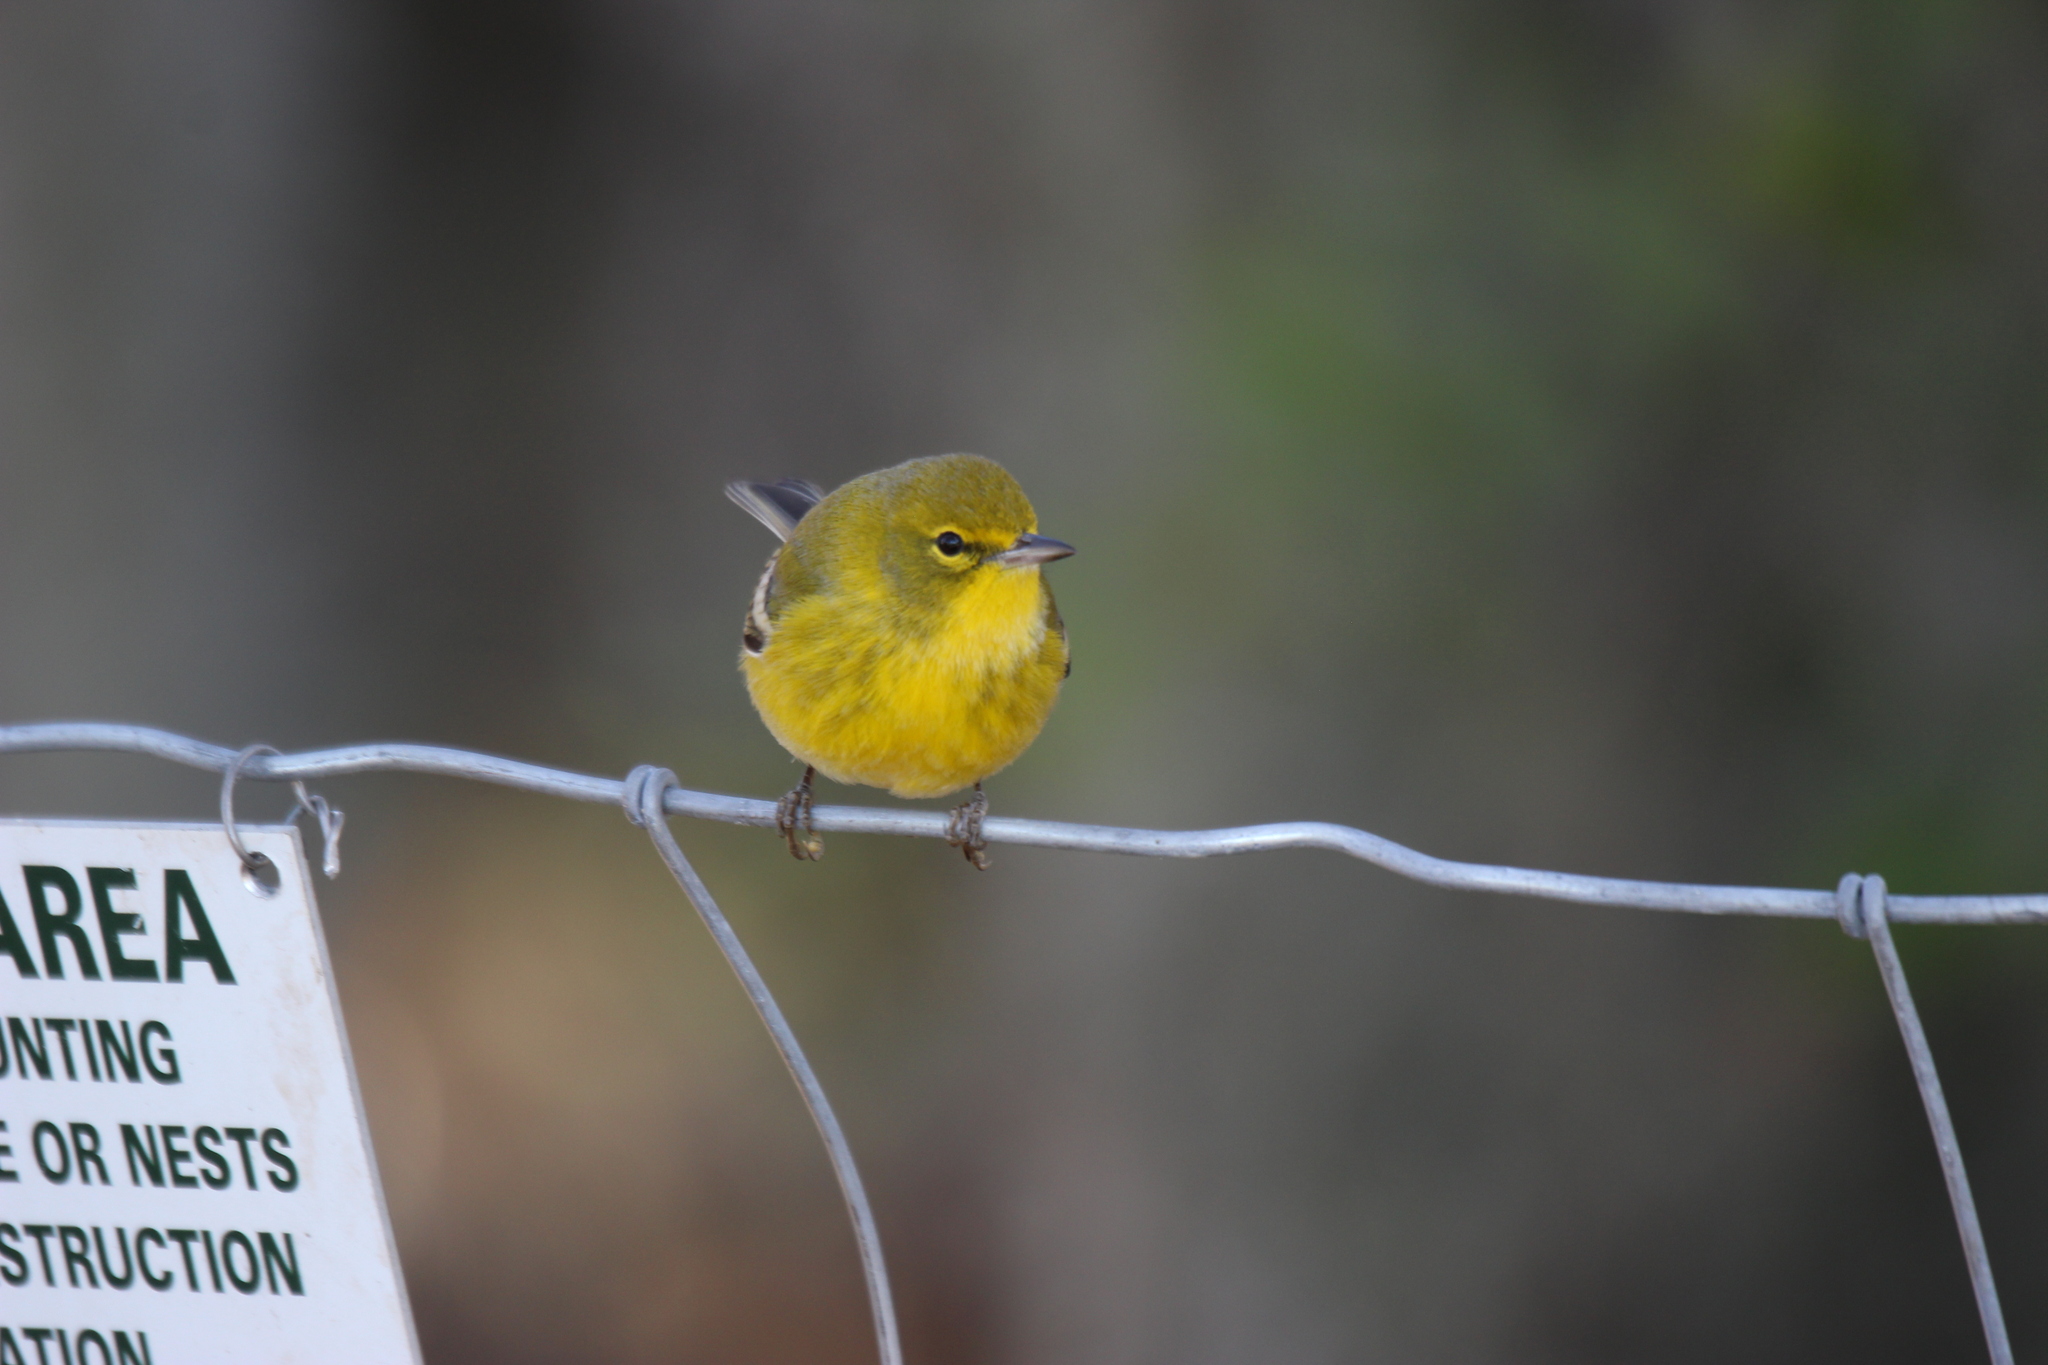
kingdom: Animalia
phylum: Chordata
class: Aves
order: Passeriformes
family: Parulidae
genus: Setophaga
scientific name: Setophaga pinus
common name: Pine warbler
